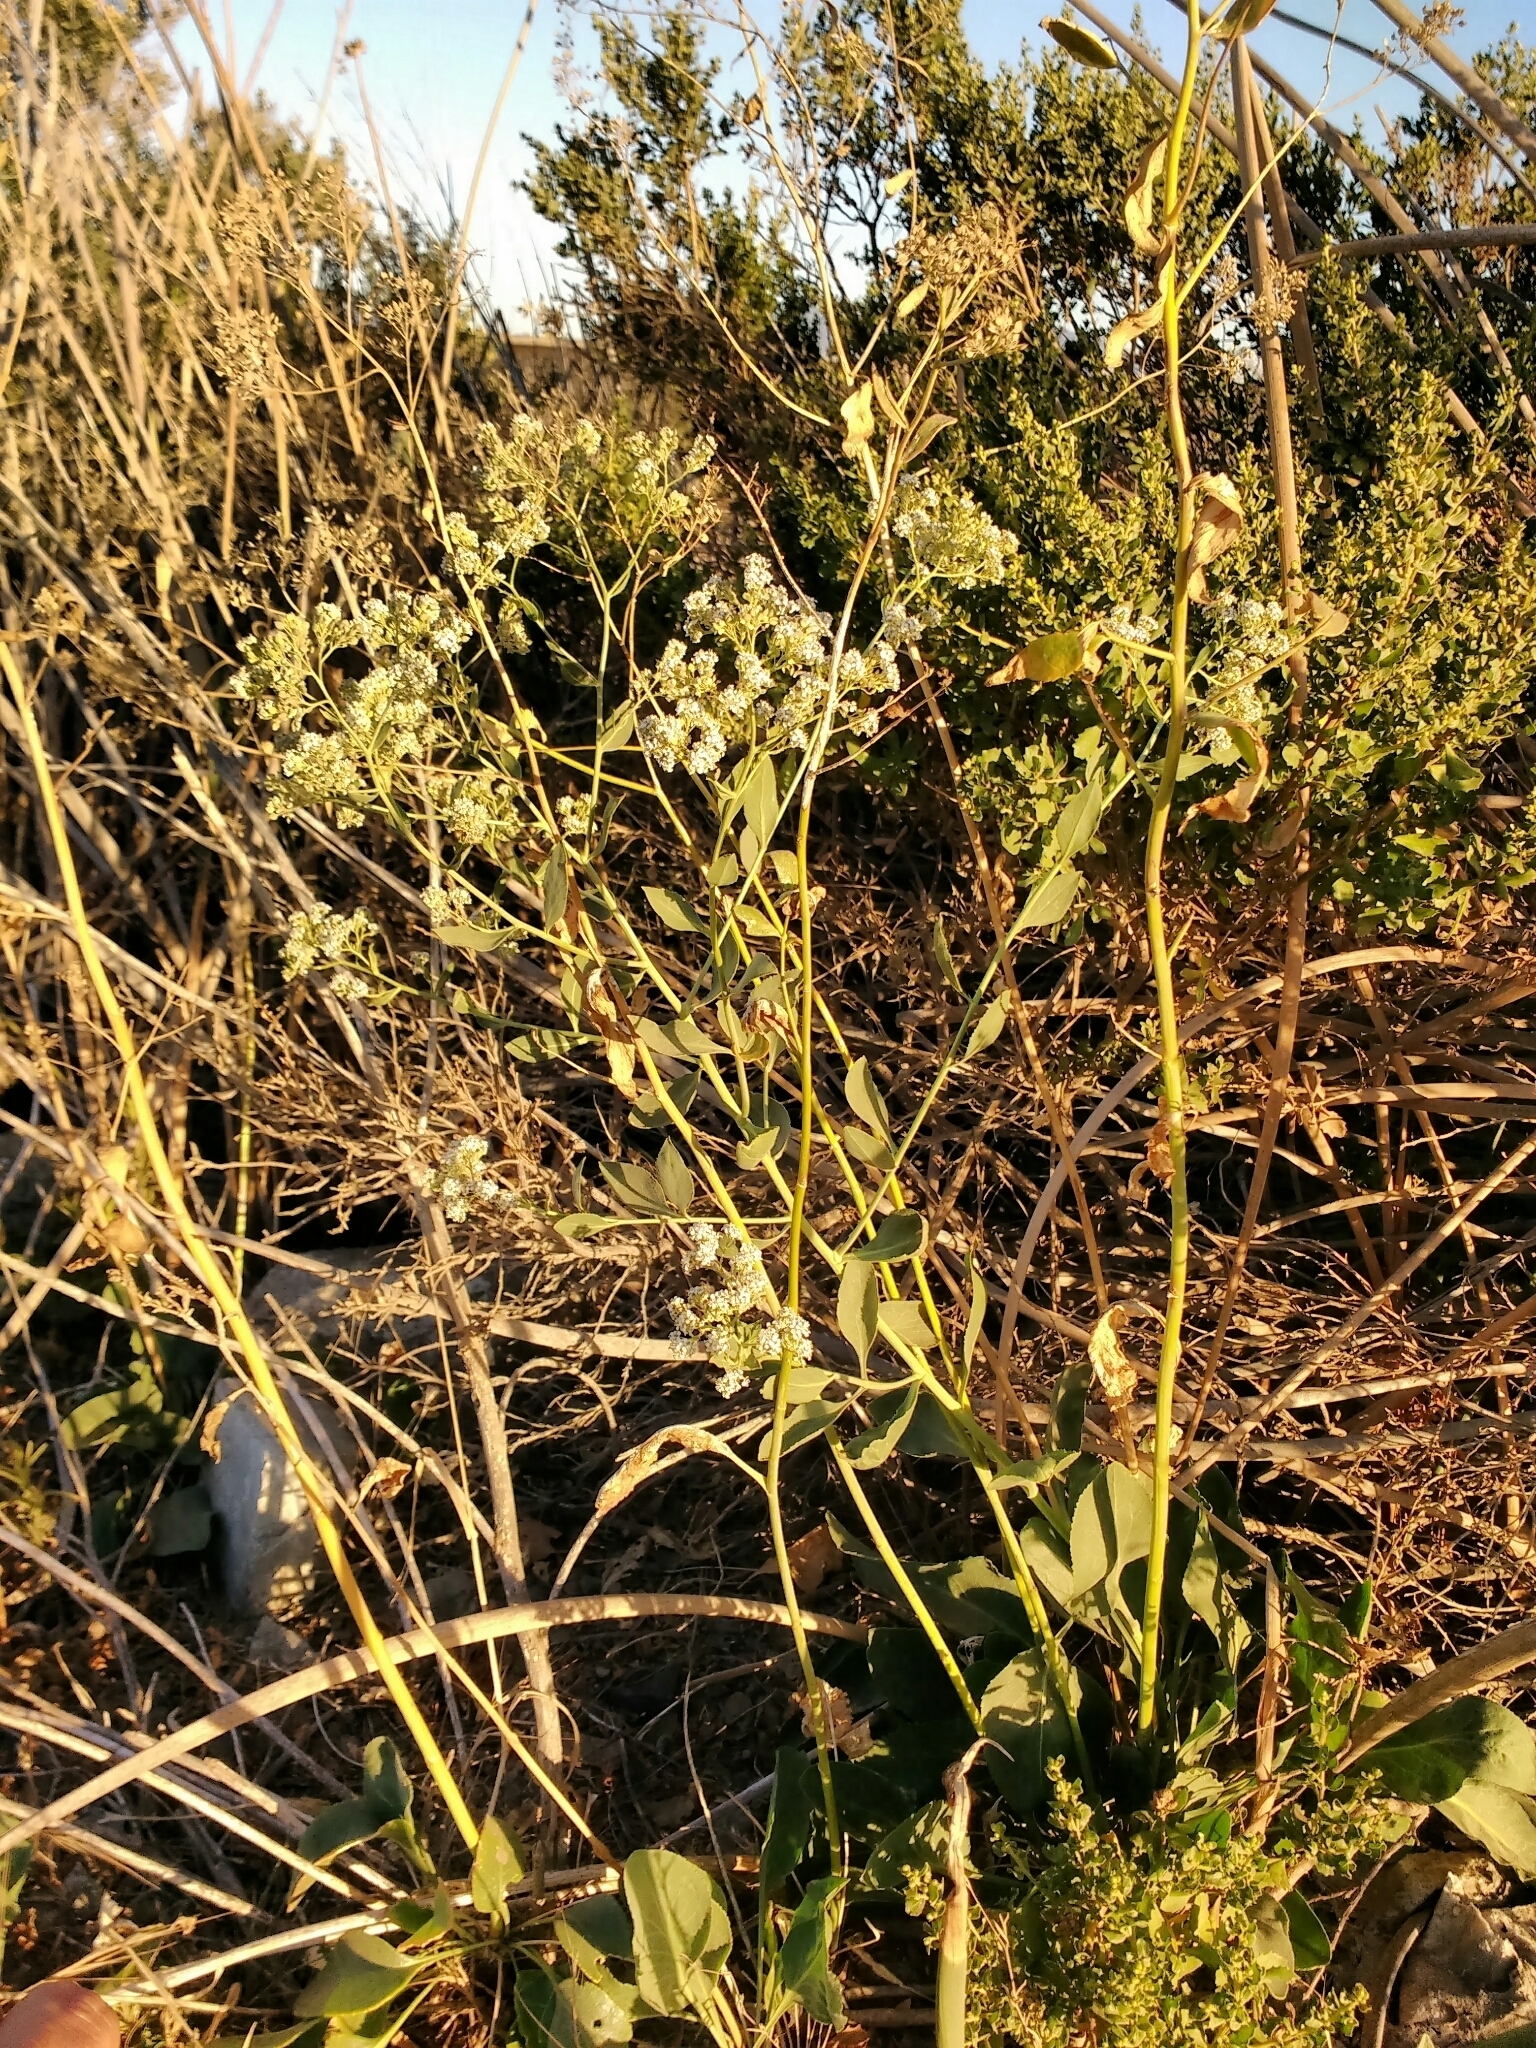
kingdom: Plantae
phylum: Tracheophyta
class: Magnoliopsida
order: Brassicales
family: Brassicaceae
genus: Lepidium
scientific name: Lepidium latifolium
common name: Dittander
